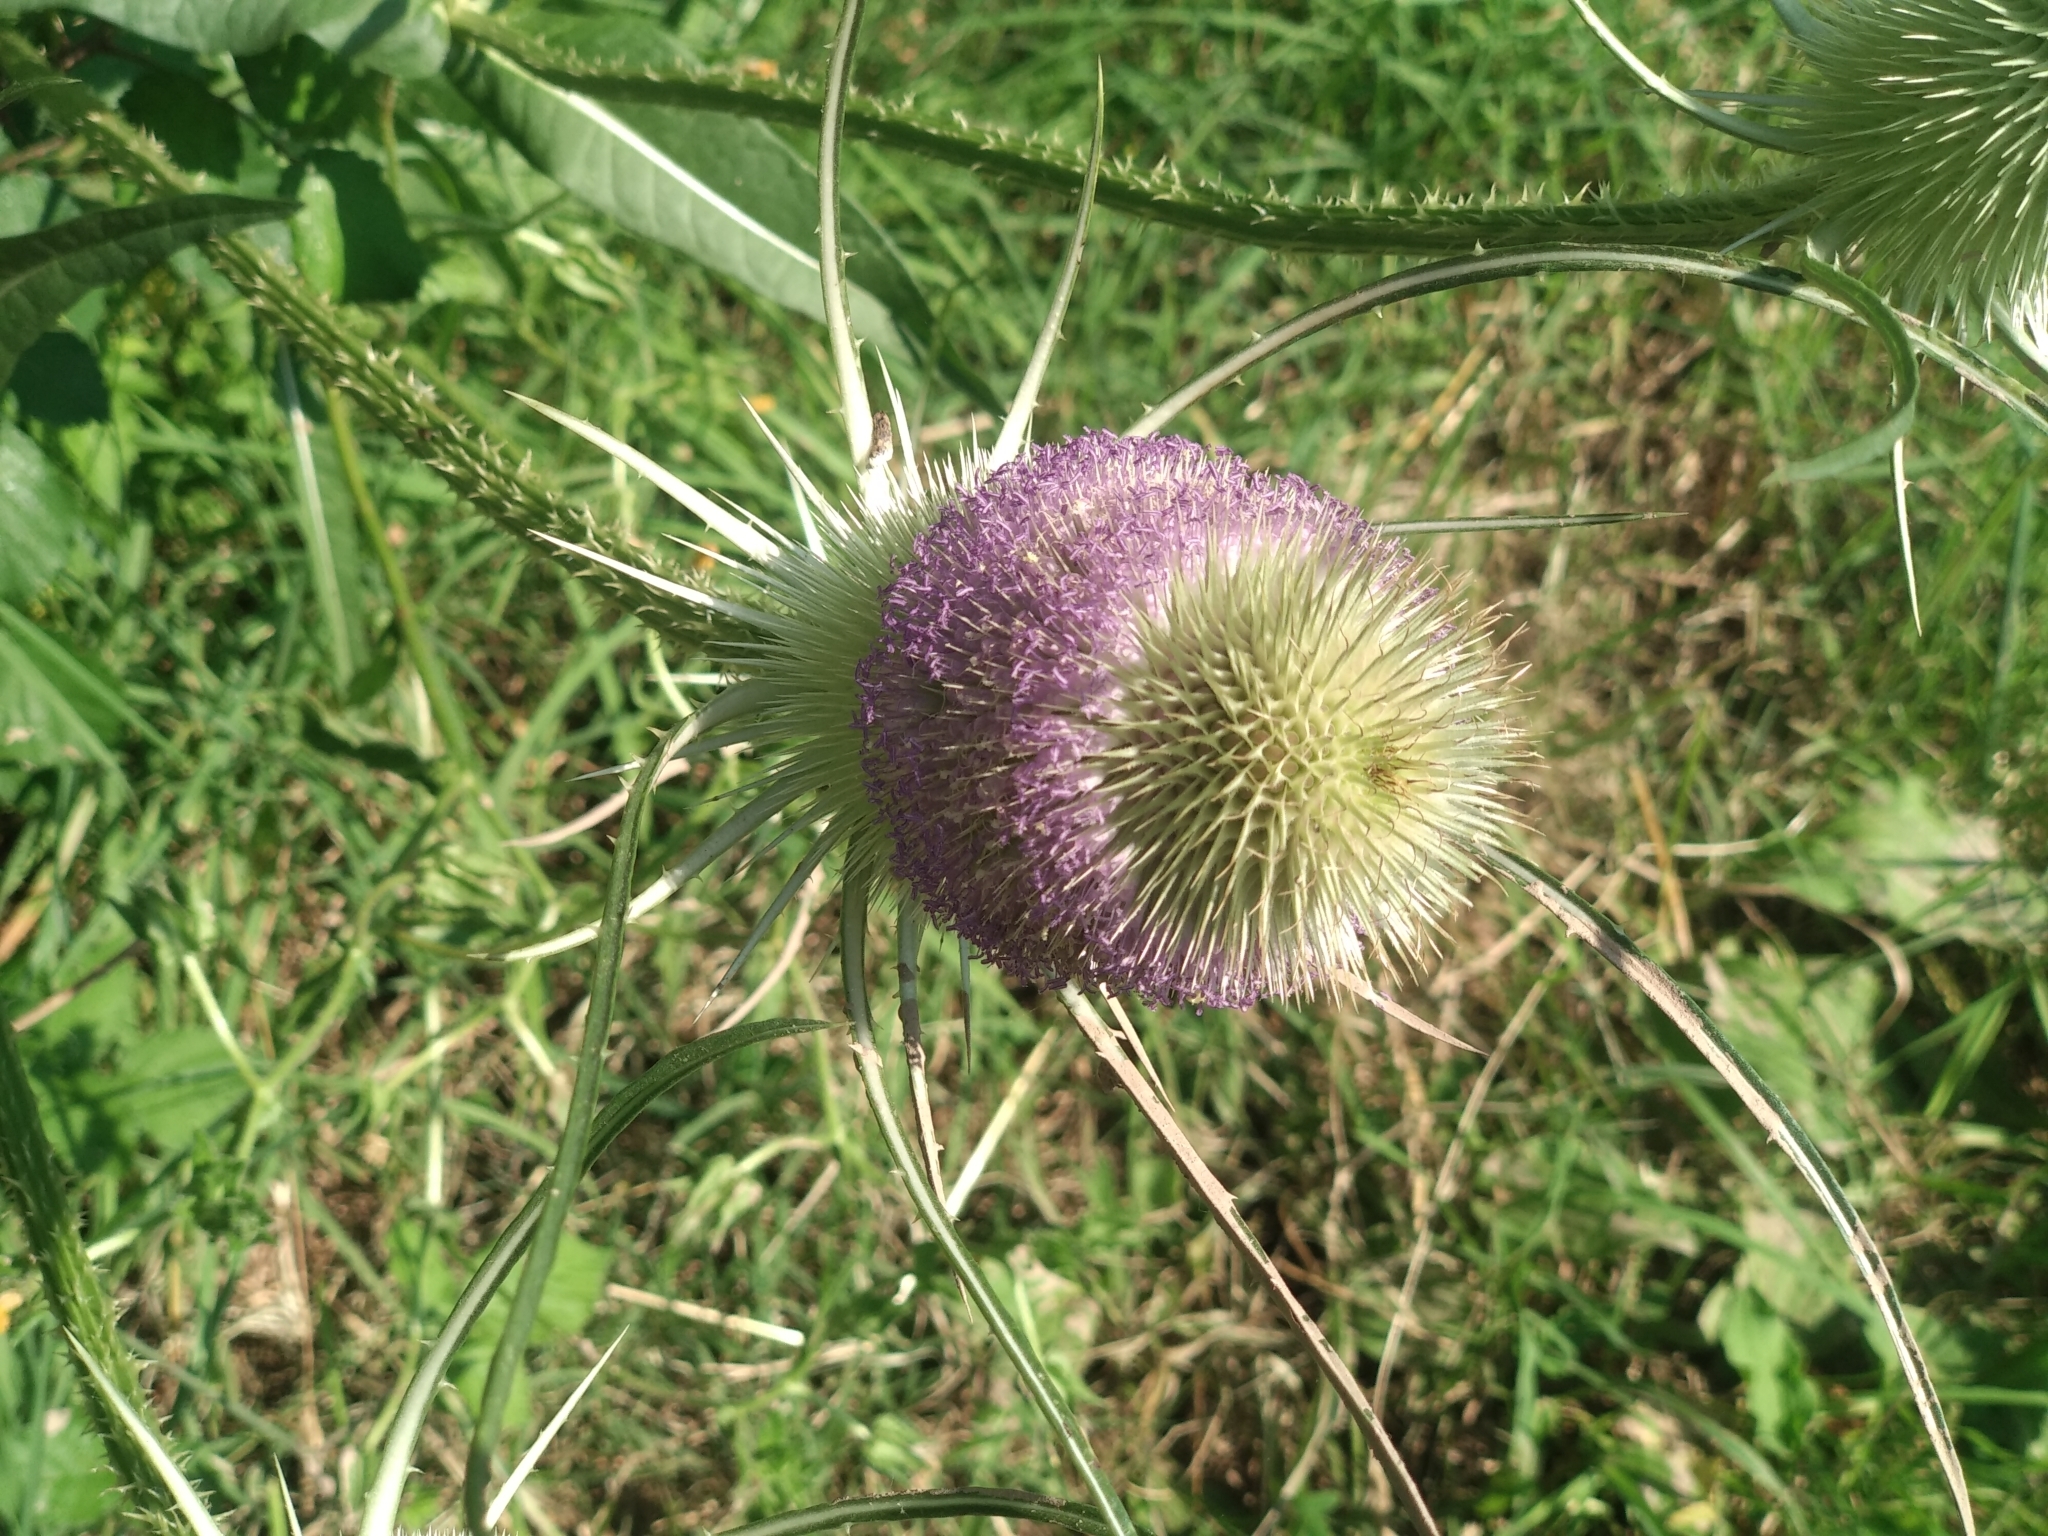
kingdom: Plantae
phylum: Tracheophyta
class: Magnoliopsida
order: Dipsacales
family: Caprifoliaceae
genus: Dipsacus
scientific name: Dipsacus fullonum
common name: Teasel
